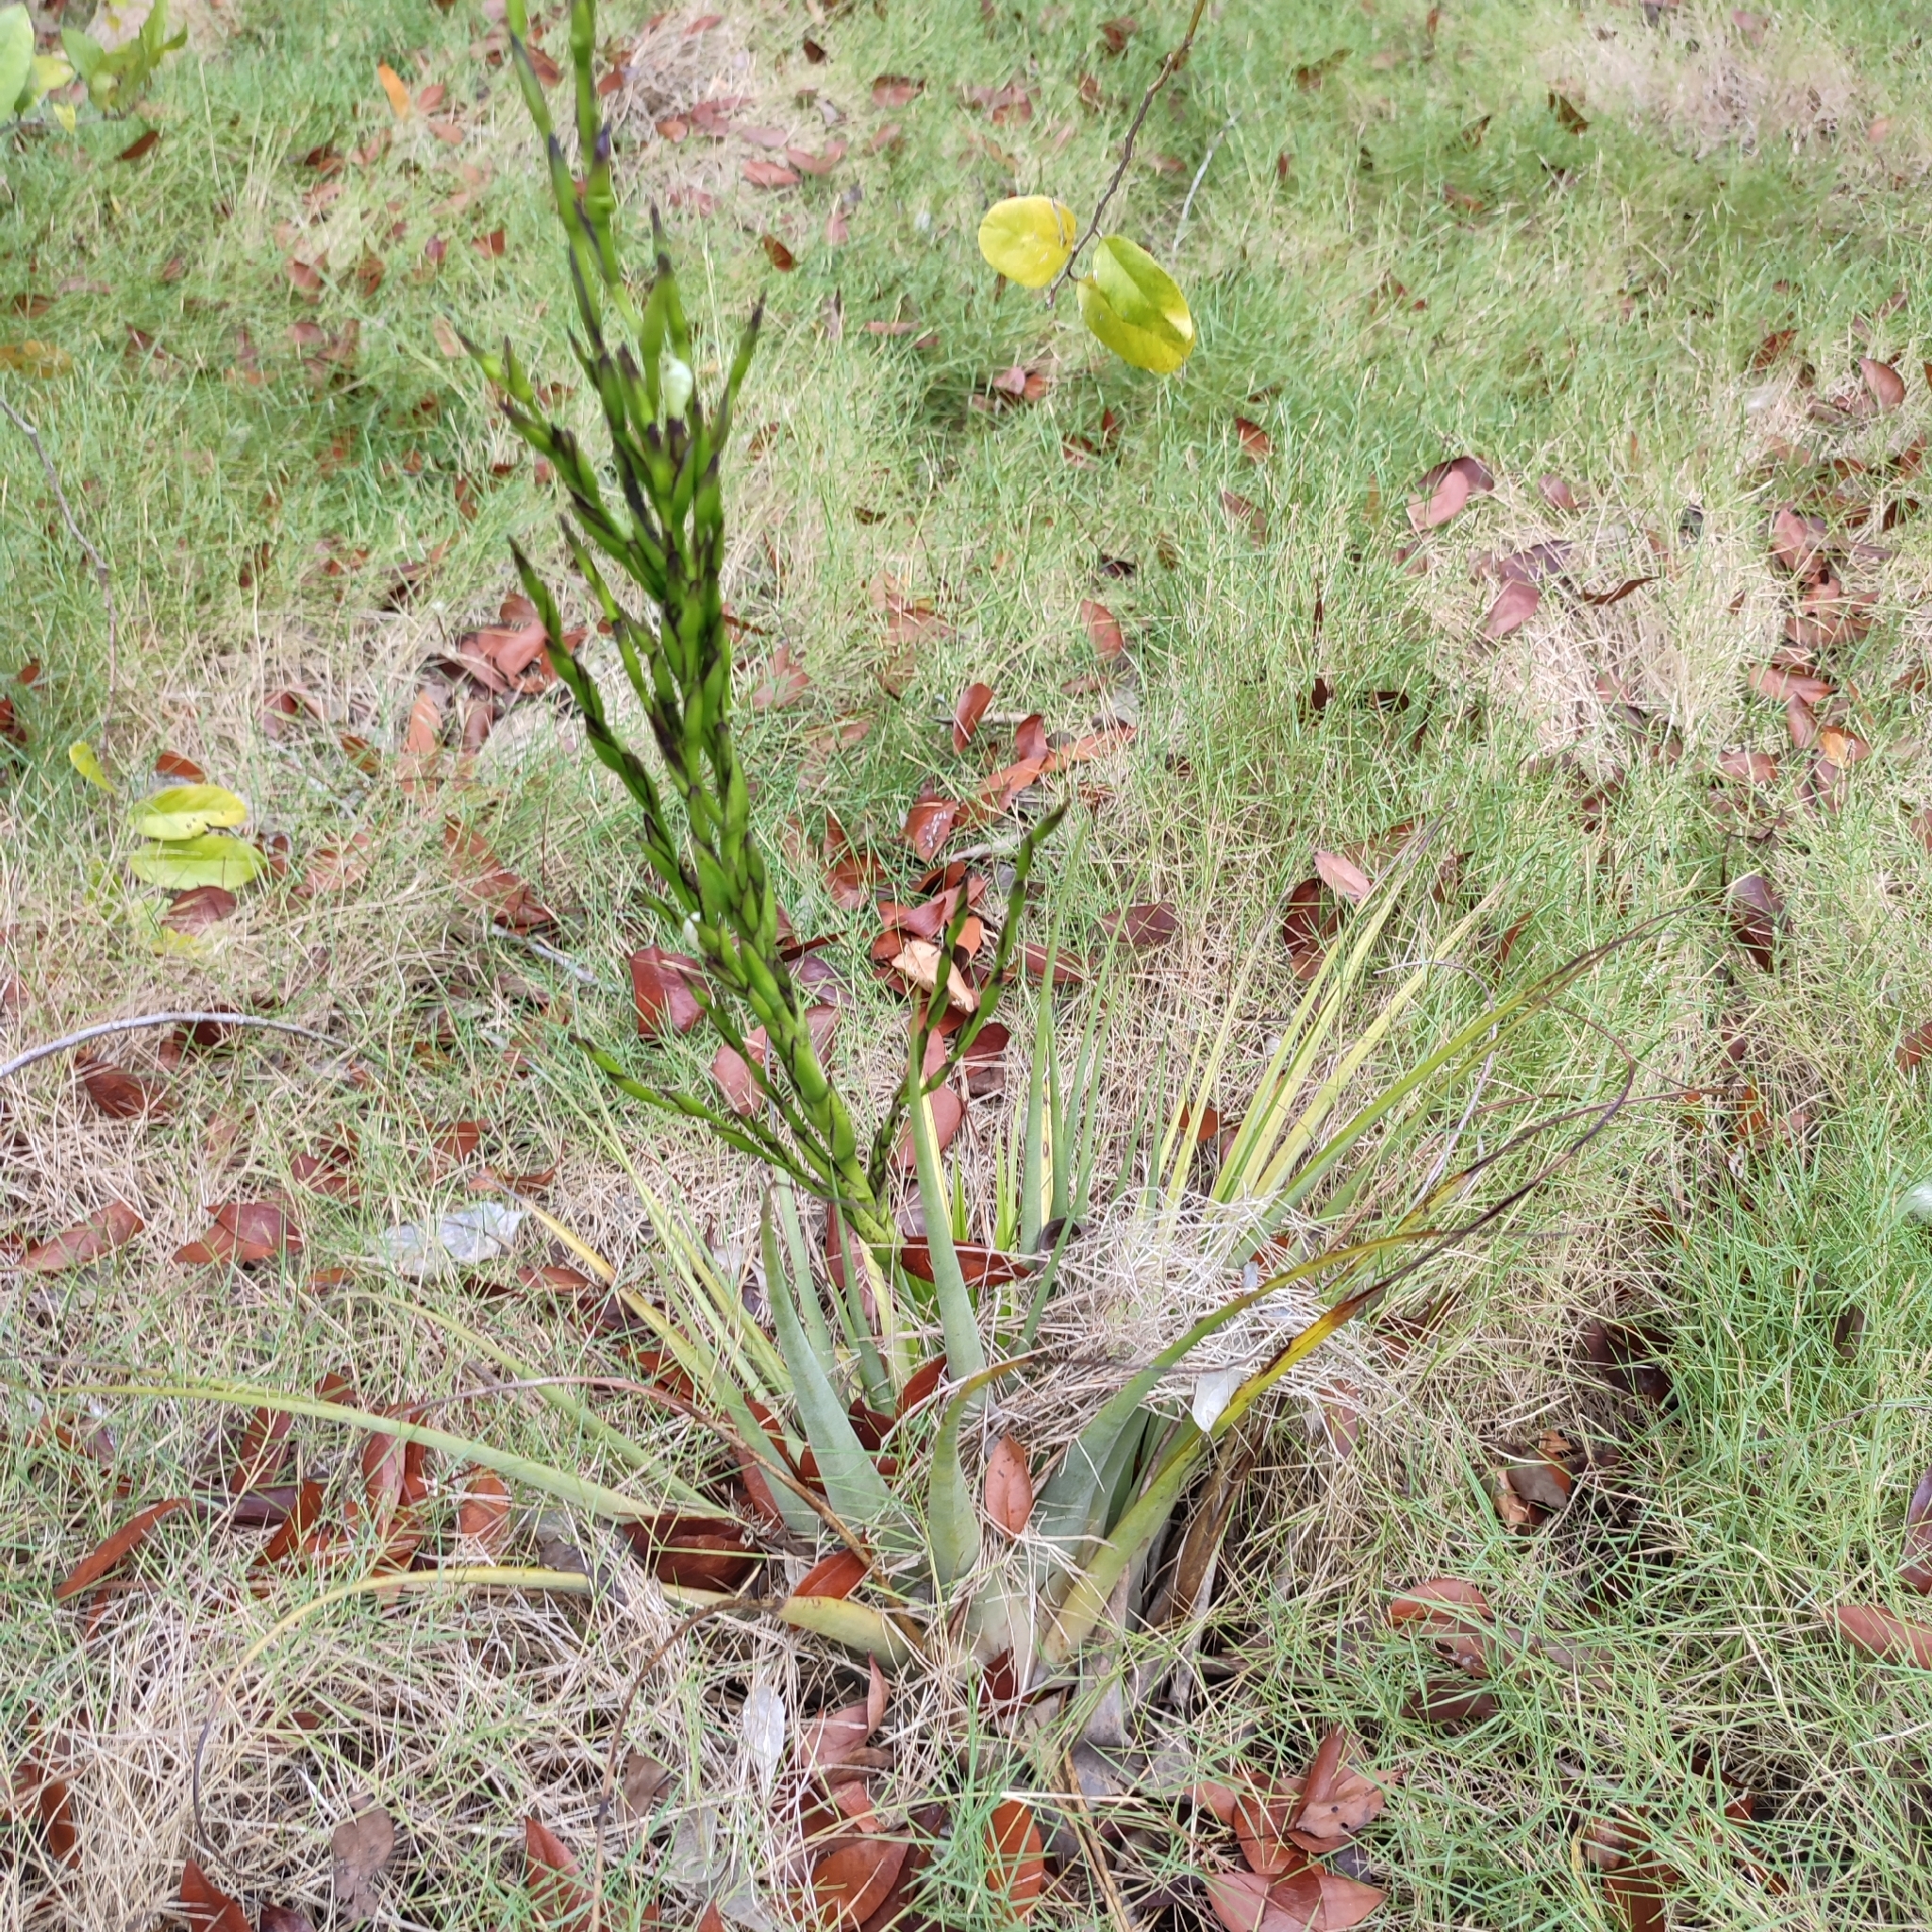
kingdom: Plantae
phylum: Tracheophyta
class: Liliopsida
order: Poales
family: Bromeliaceae
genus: Tillandsia
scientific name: Tillandsia utriculata
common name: Wild pine
